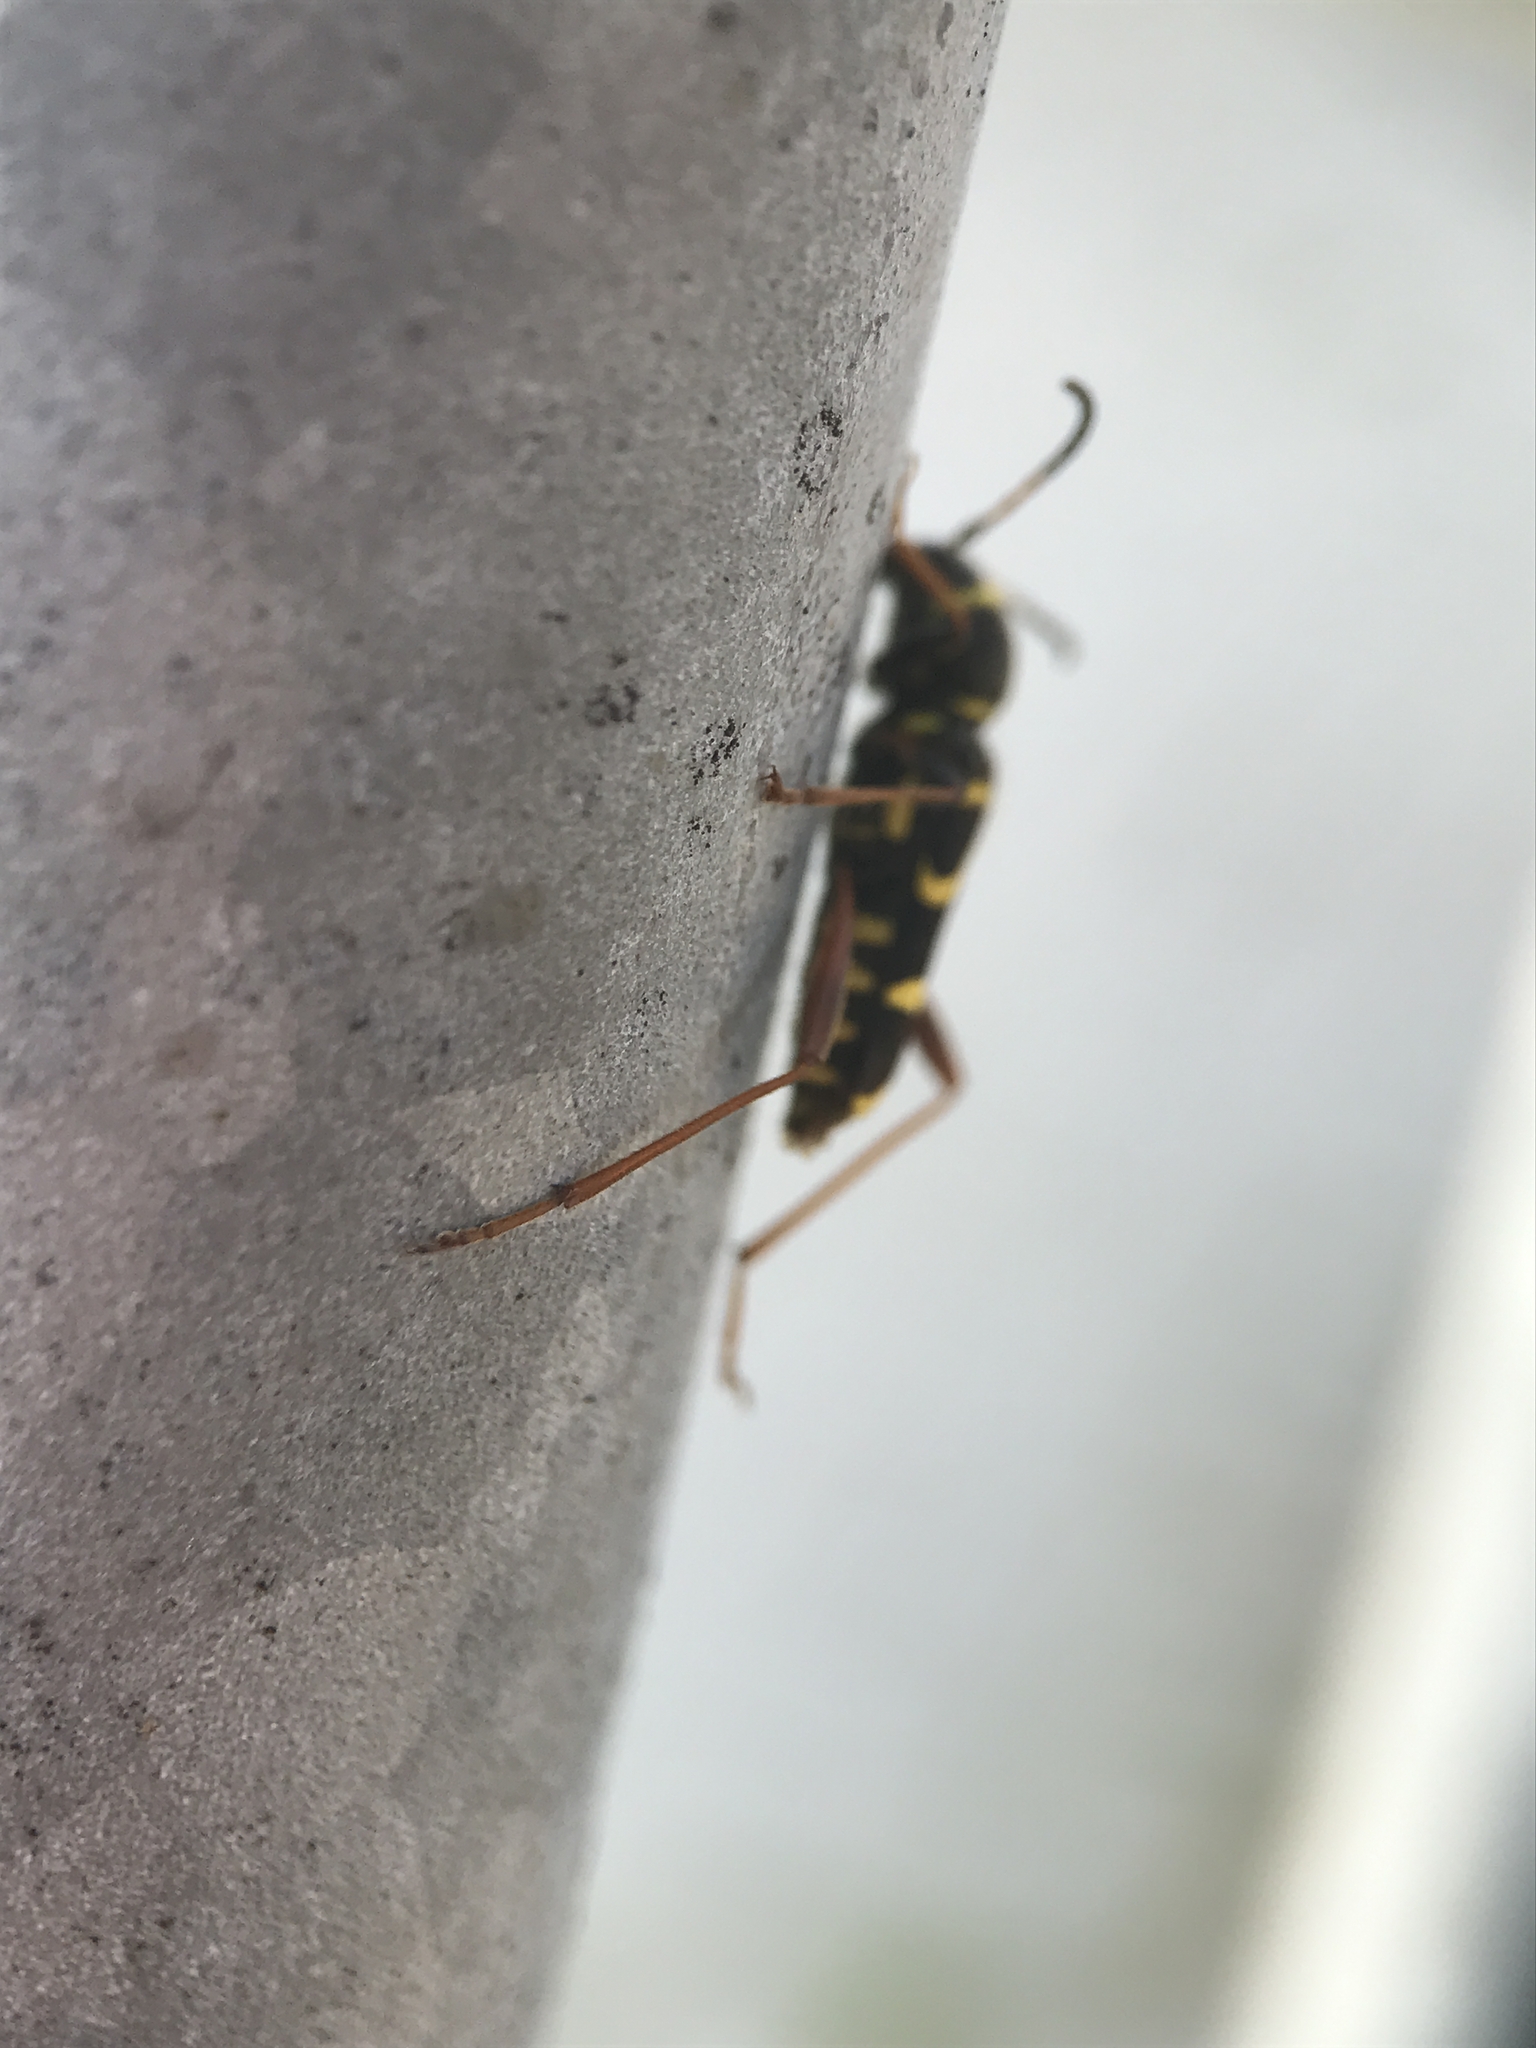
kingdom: Animalia
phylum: Arthropoda
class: Insecta
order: Coleoptera
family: Cerambycidae
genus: Clytus
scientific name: Clytus arietis
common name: Wasp beetle
